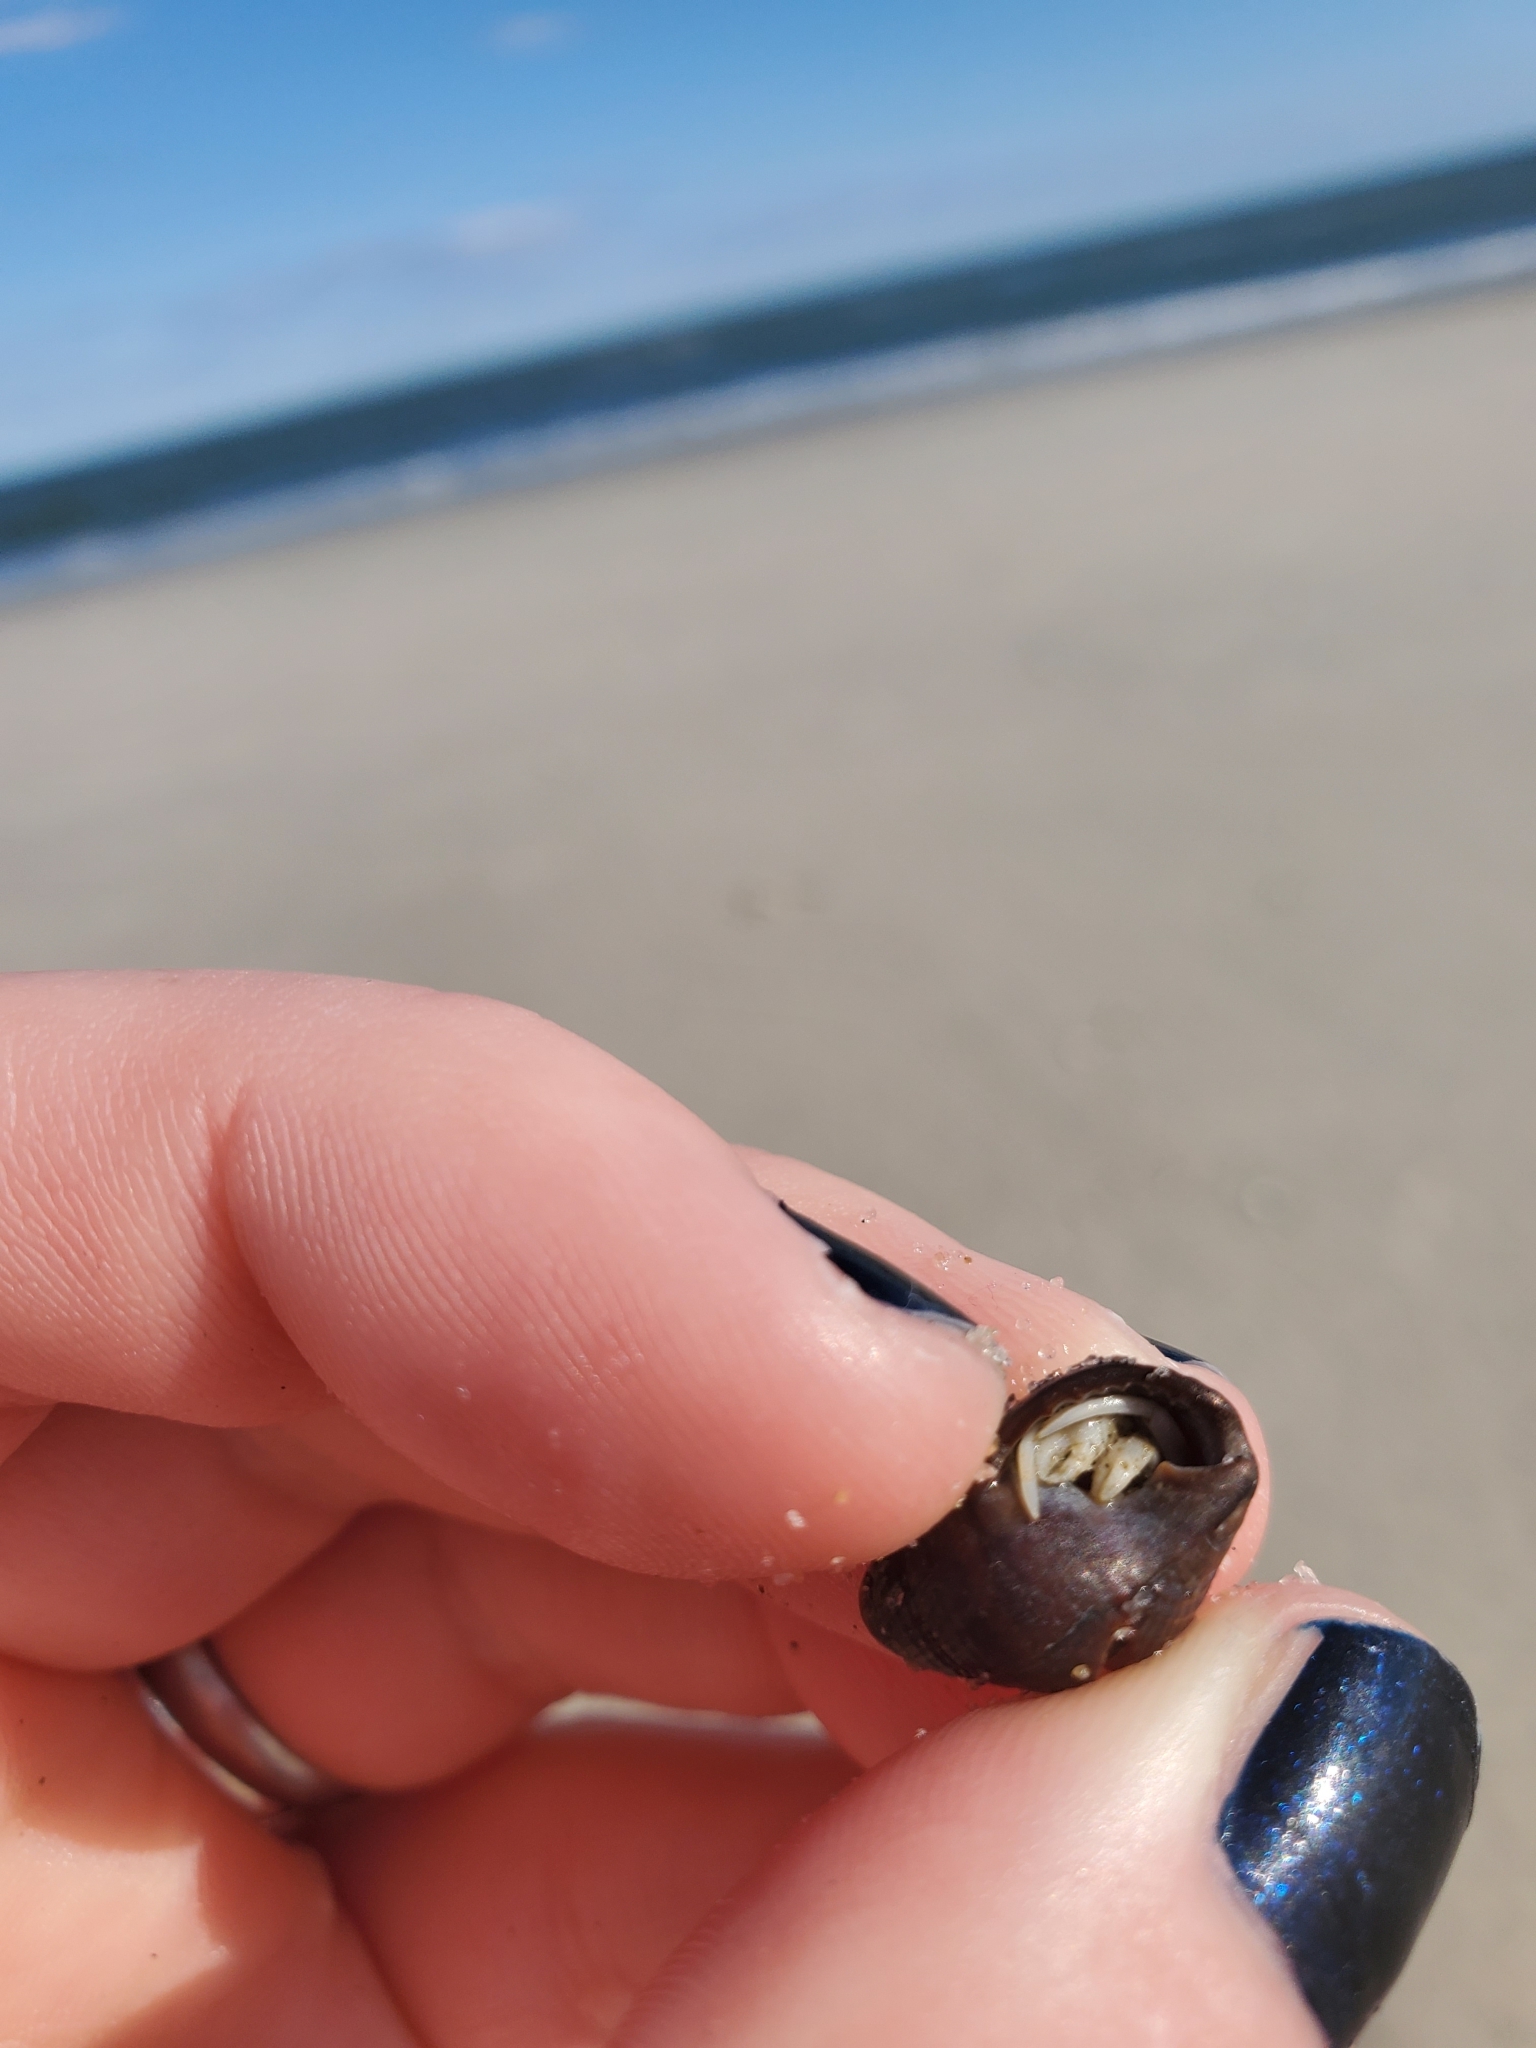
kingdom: Animalia
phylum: Arthropoda
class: Malacostraca
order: Decapoda
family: Paguridae
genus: Pagurus
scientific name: Pagurus longicarpus
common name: Long-armed hermit crab
